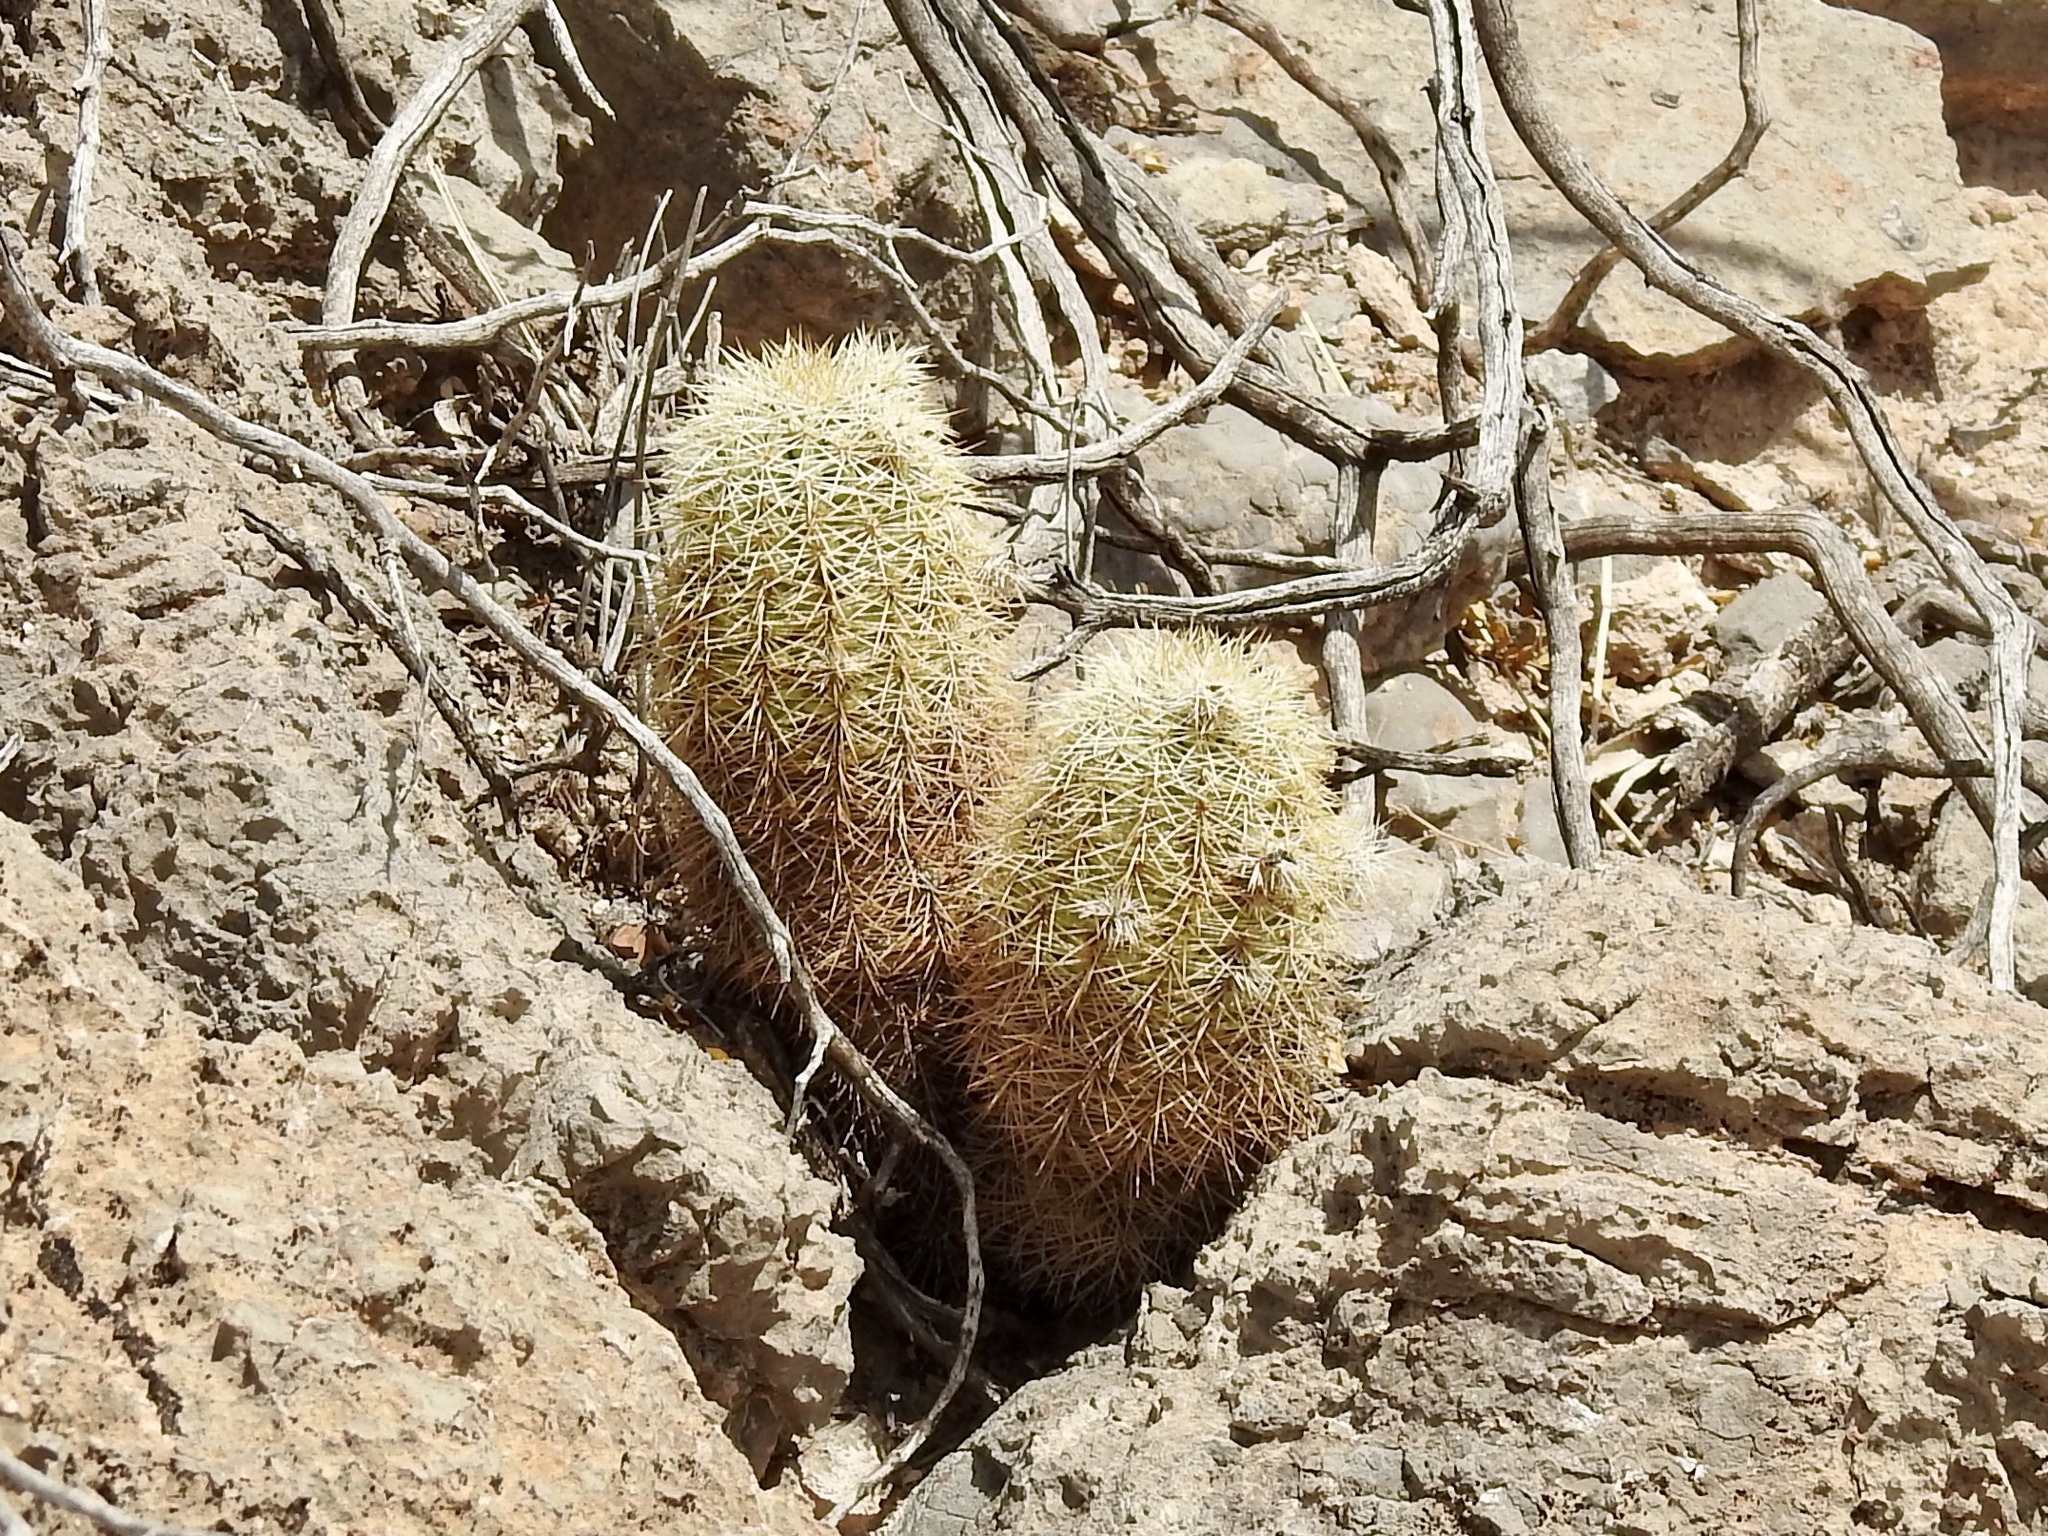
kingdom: Plantae
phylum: Tracheophyta
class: Magnoliopsida
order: Caryophyllales
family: Cactaceae
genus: Echinocereus
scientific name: Echinocereus dasyacanthus
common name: Spiny hedgehog cactus
